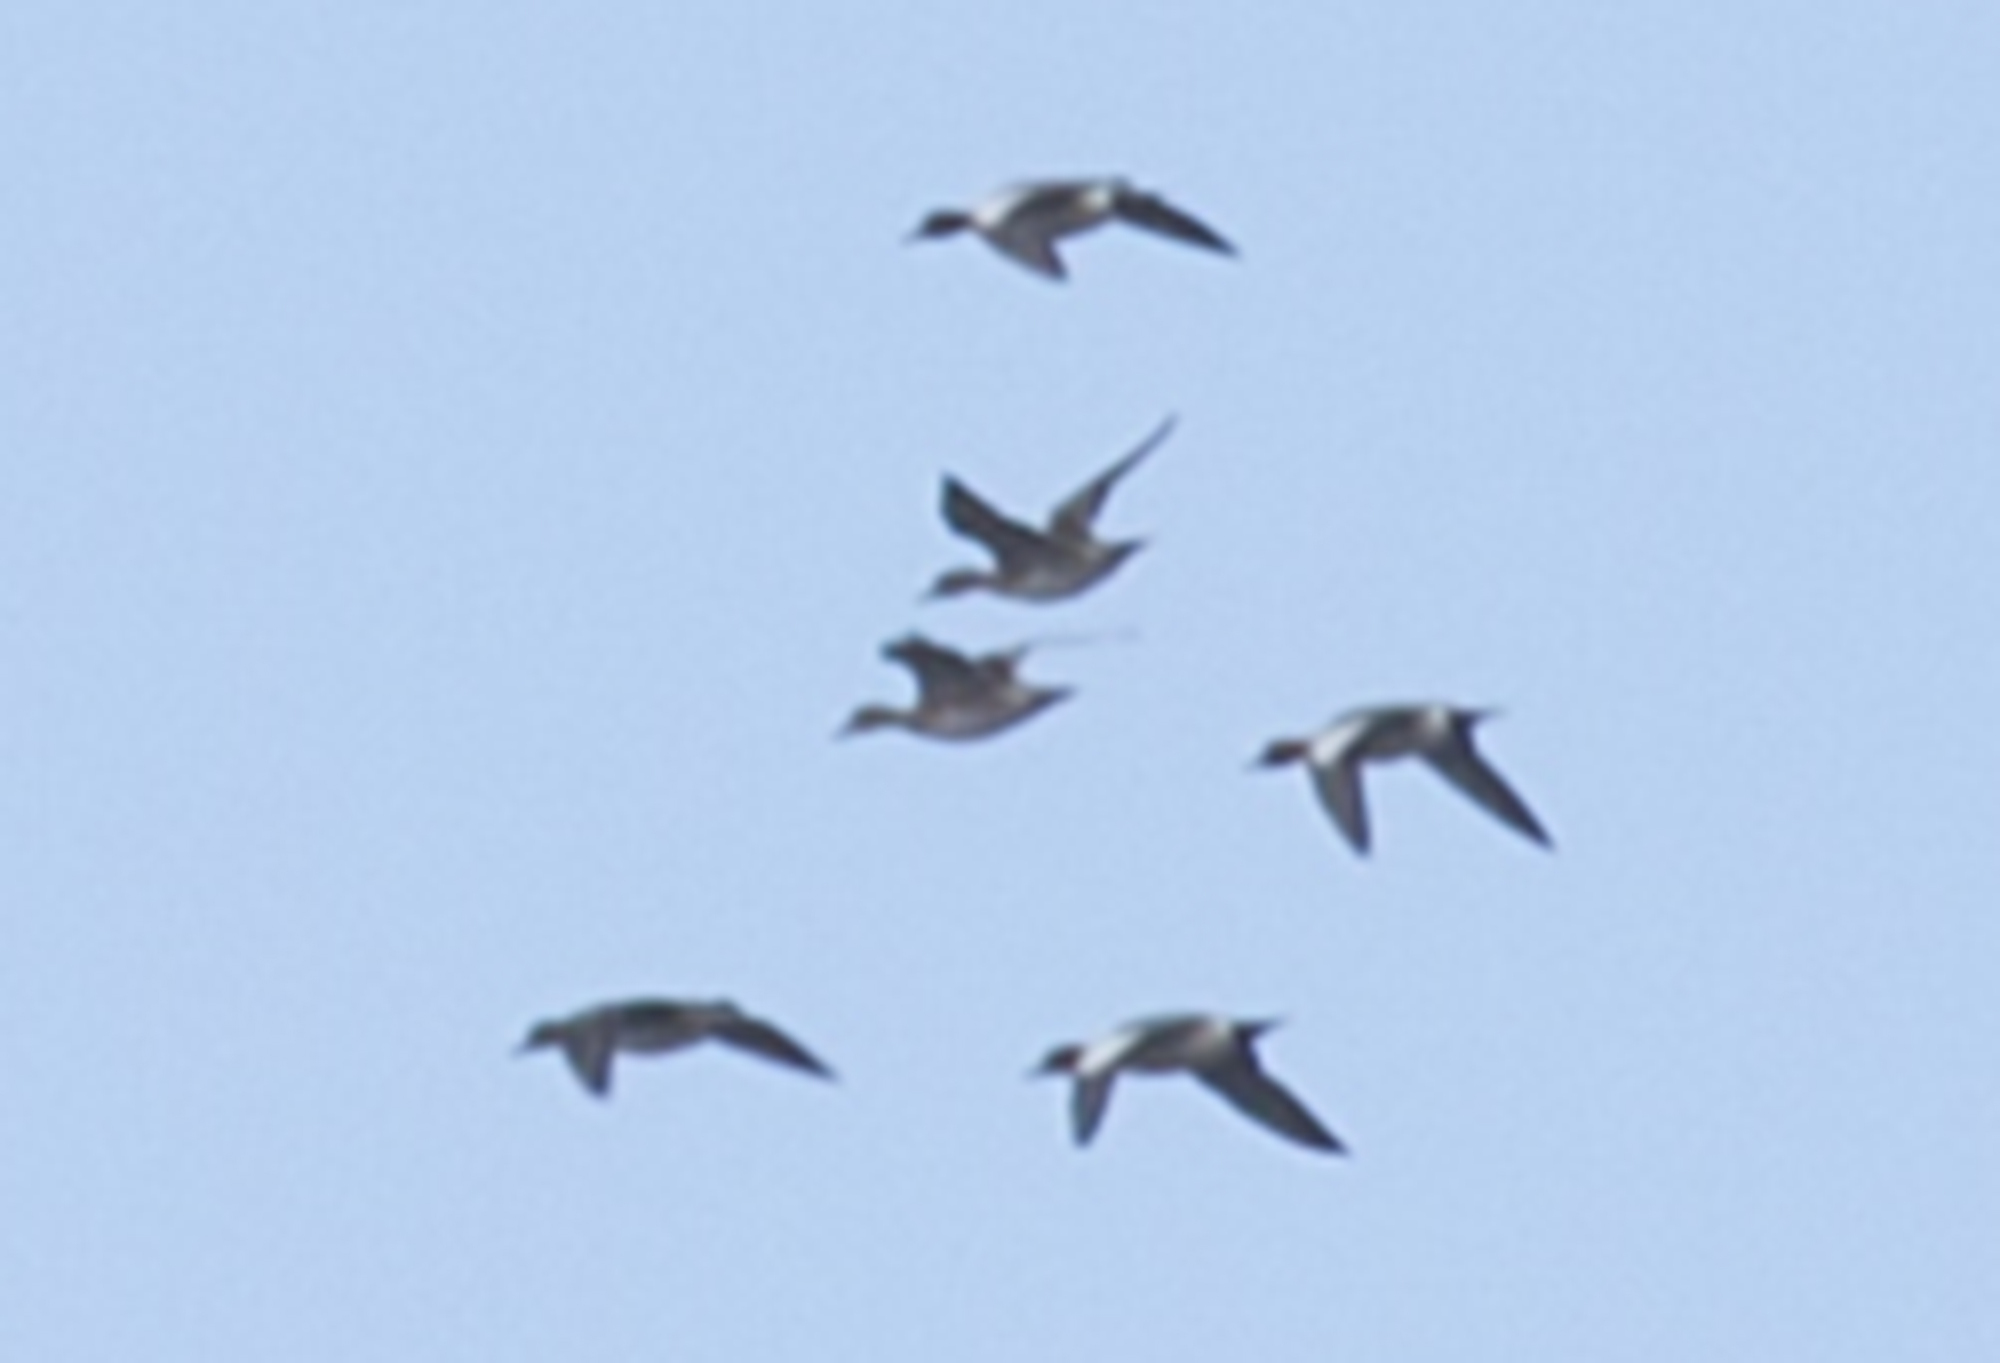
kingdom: Animalia
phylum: Chordata
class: Aves
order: Anseriformes
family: Anatidae
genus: Mareca
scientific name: Mareca penelope
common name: Eurasian wigeon
